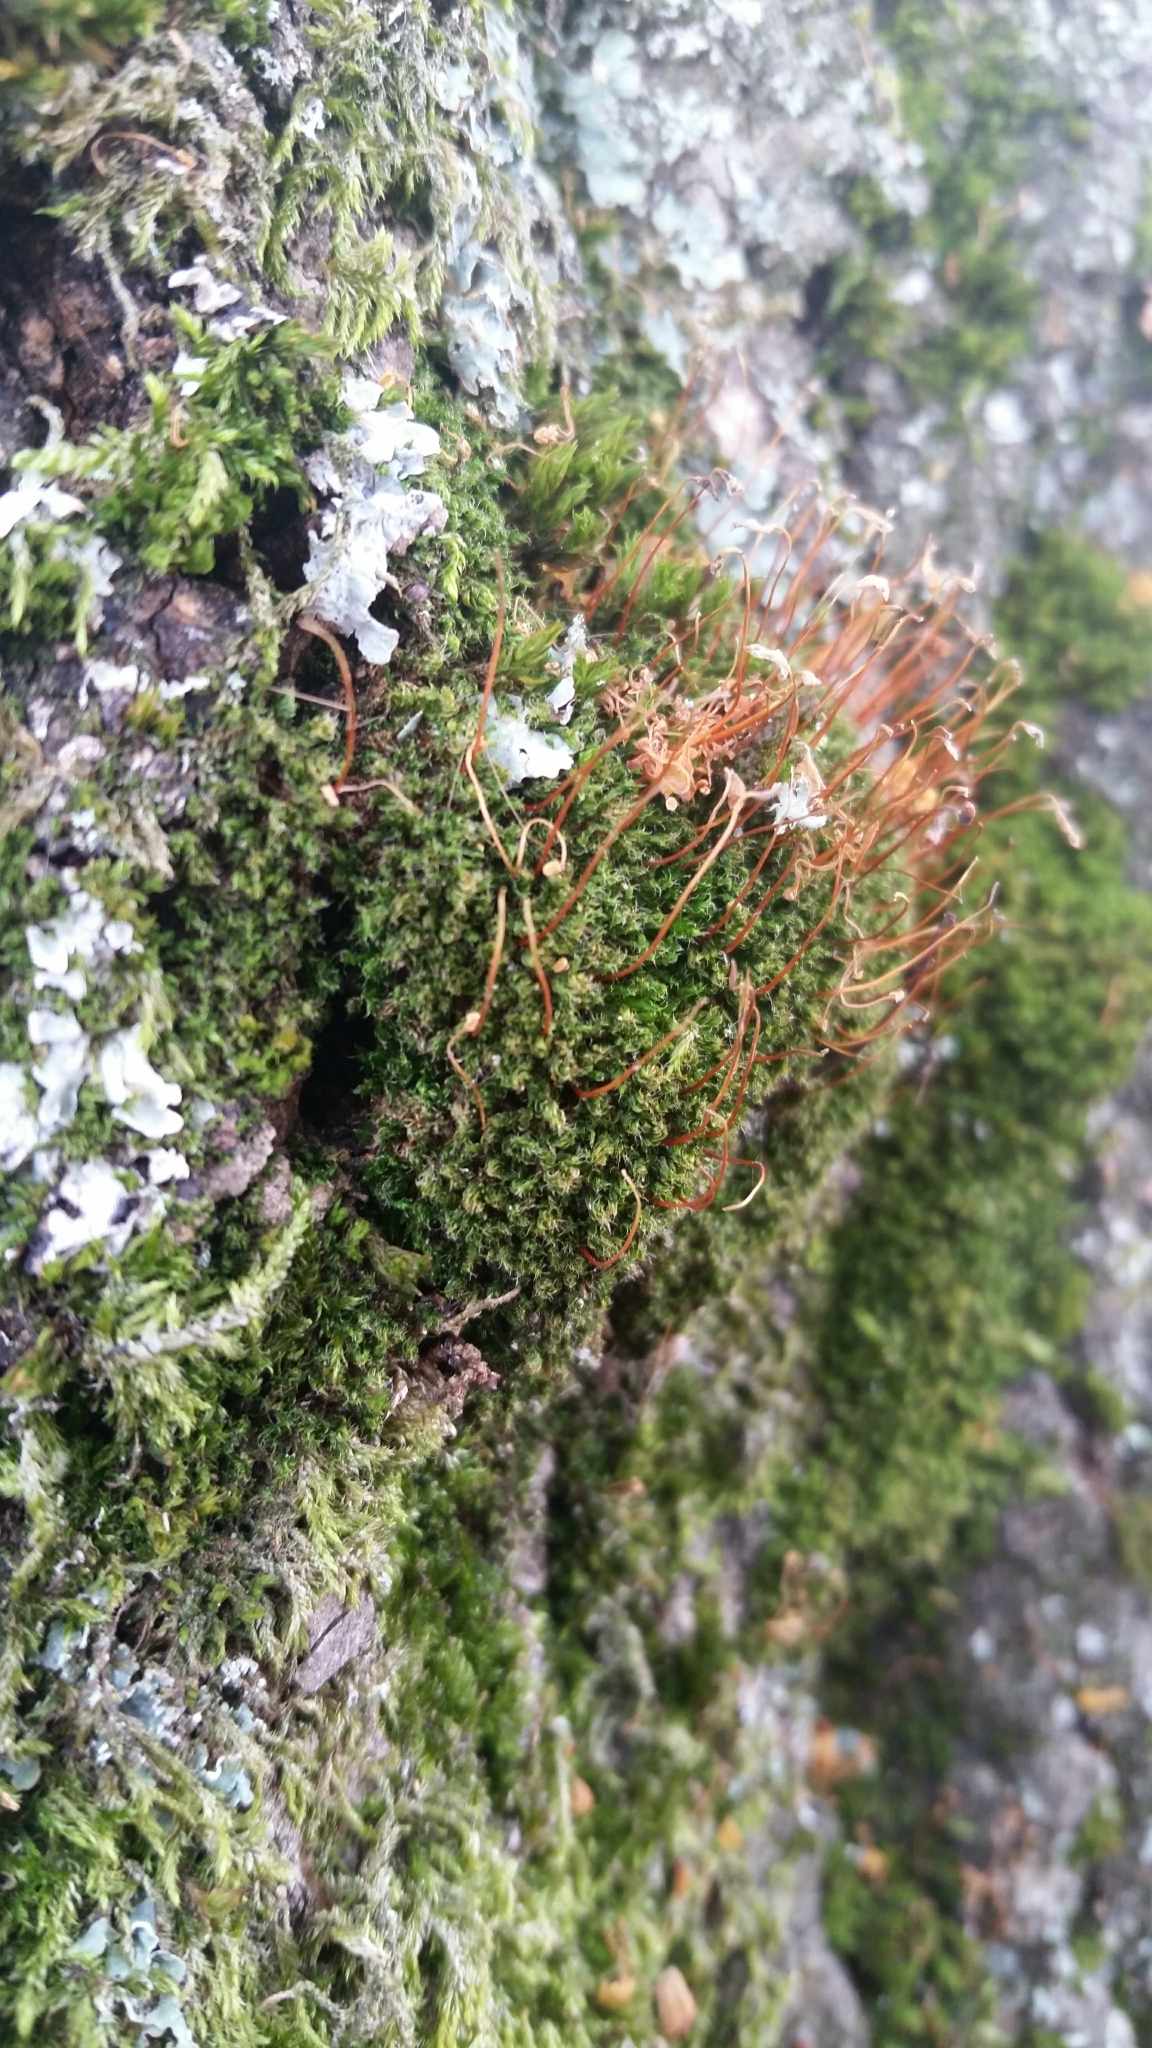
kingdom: Plantae
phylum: Bryophyta
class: Bryopsida
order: Bryales
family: Bryaceae
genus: Rosulabryum
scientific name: Rosulabryum capillare
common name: Capillary thread-moss
